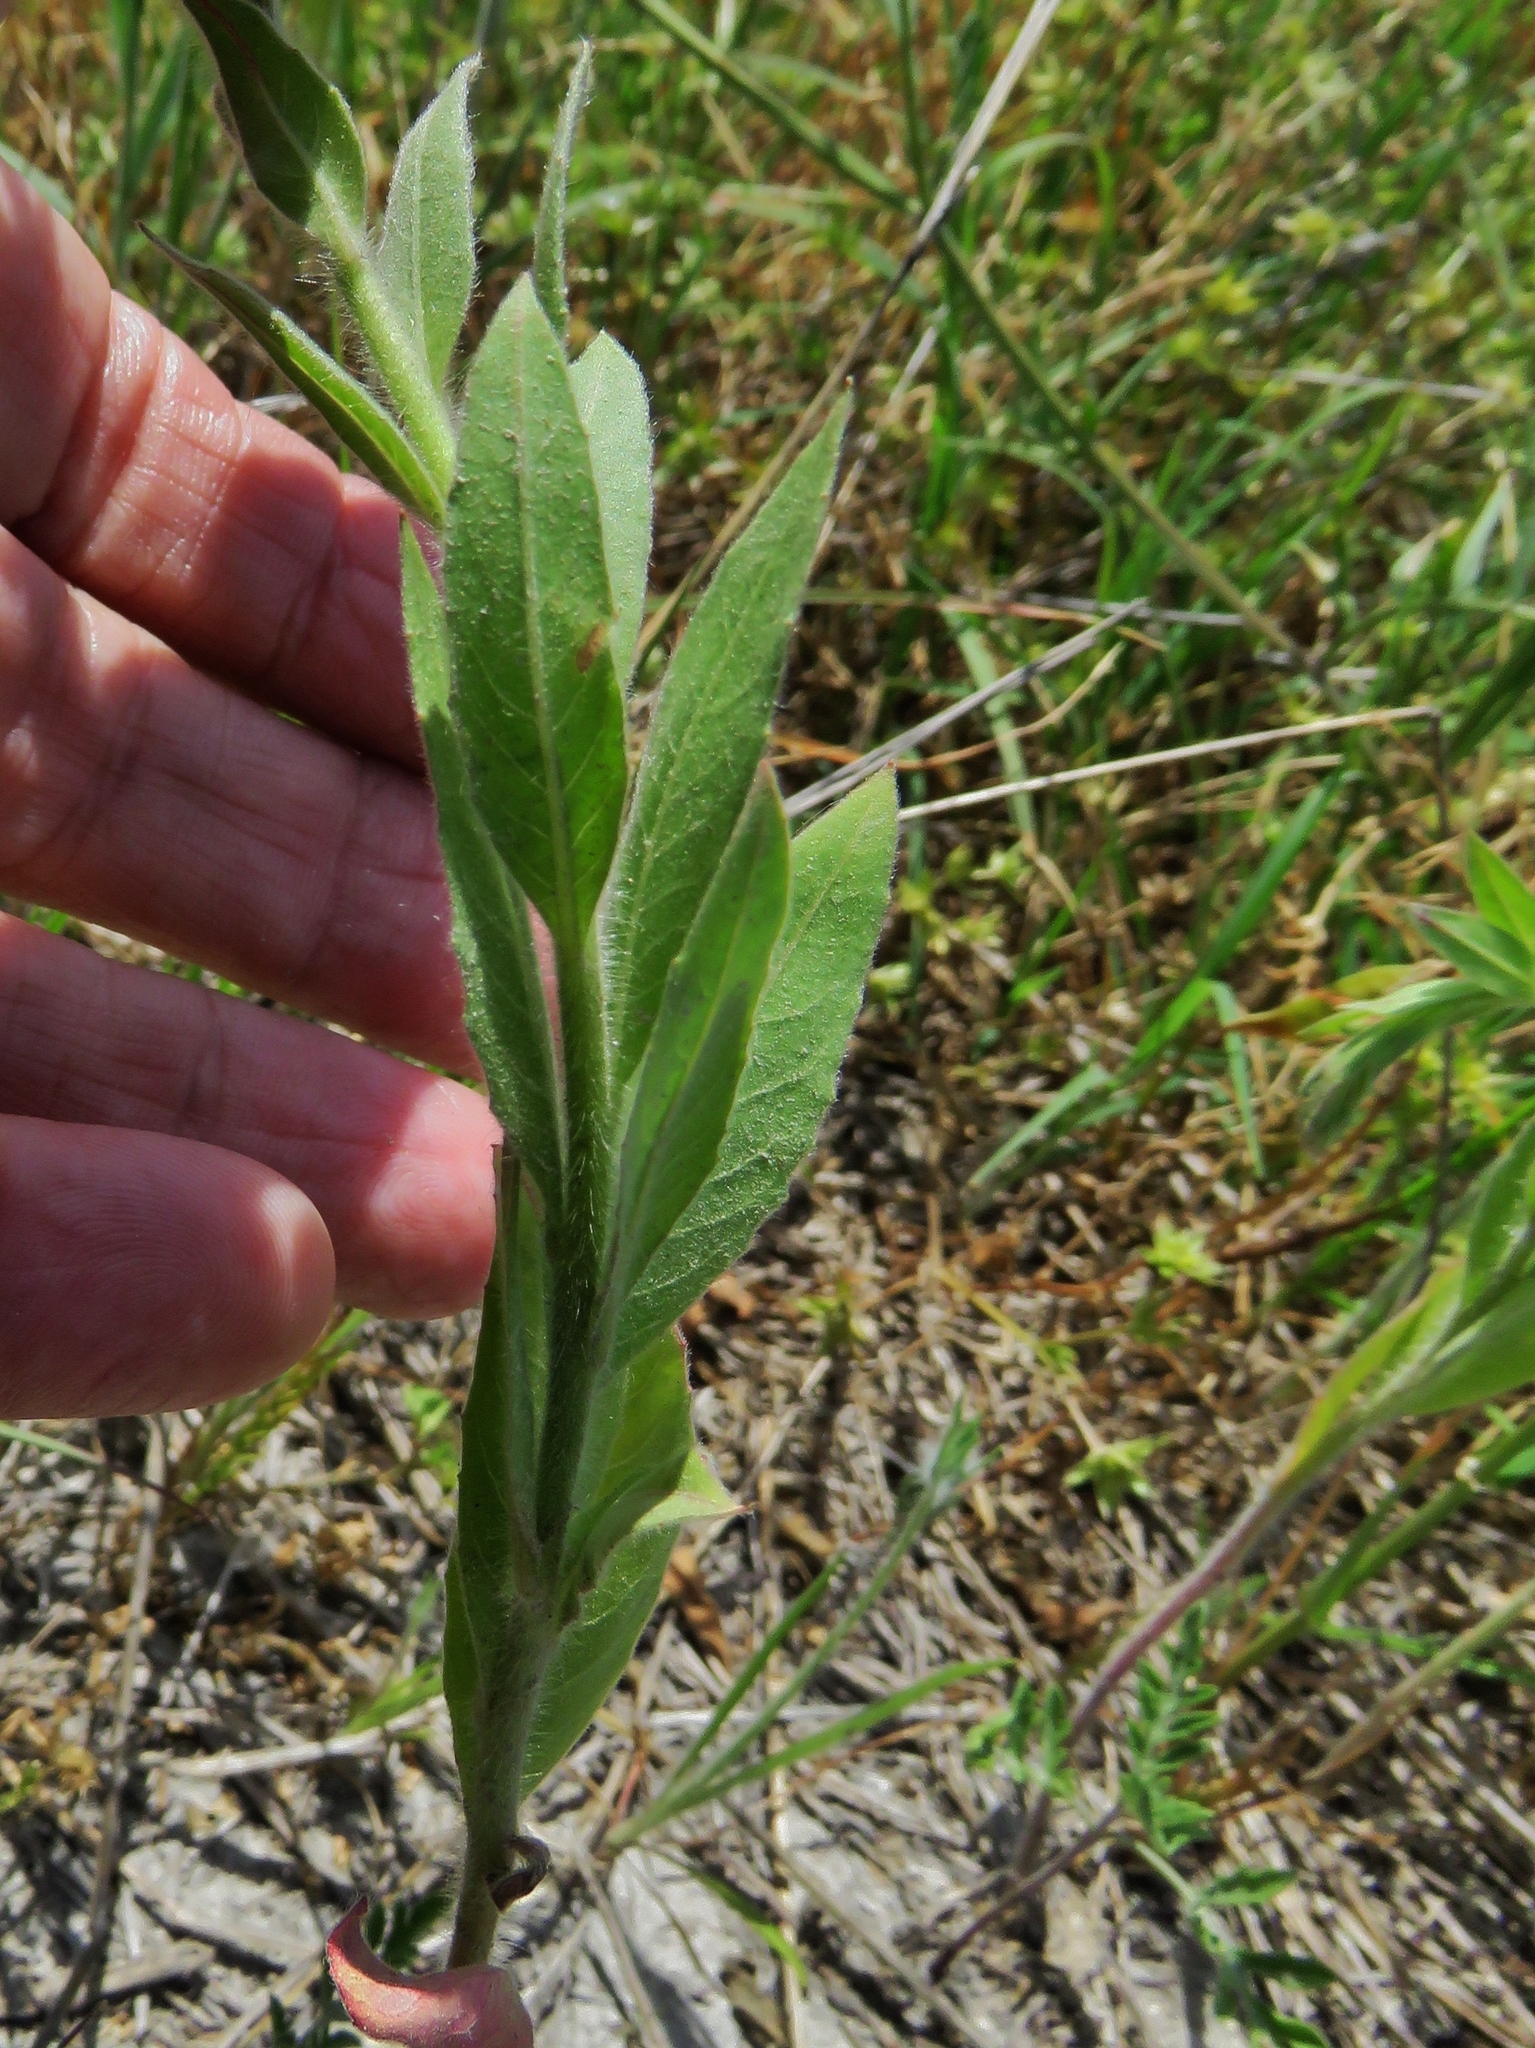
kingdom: Plantae
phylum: Tracheophyta
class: Magnoliopsida
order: Myrtales
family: Onagraceae
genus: Oenothera
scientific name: Oenothera curtiflora
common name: Velvetweed
